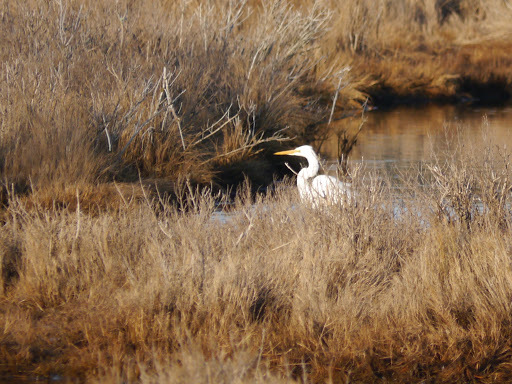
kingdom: Animalia
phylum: Chordata
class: Aves
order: Pelecaniformes
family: Ardeidae
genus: Ardea
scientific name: Ardea alba
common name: Great egret
